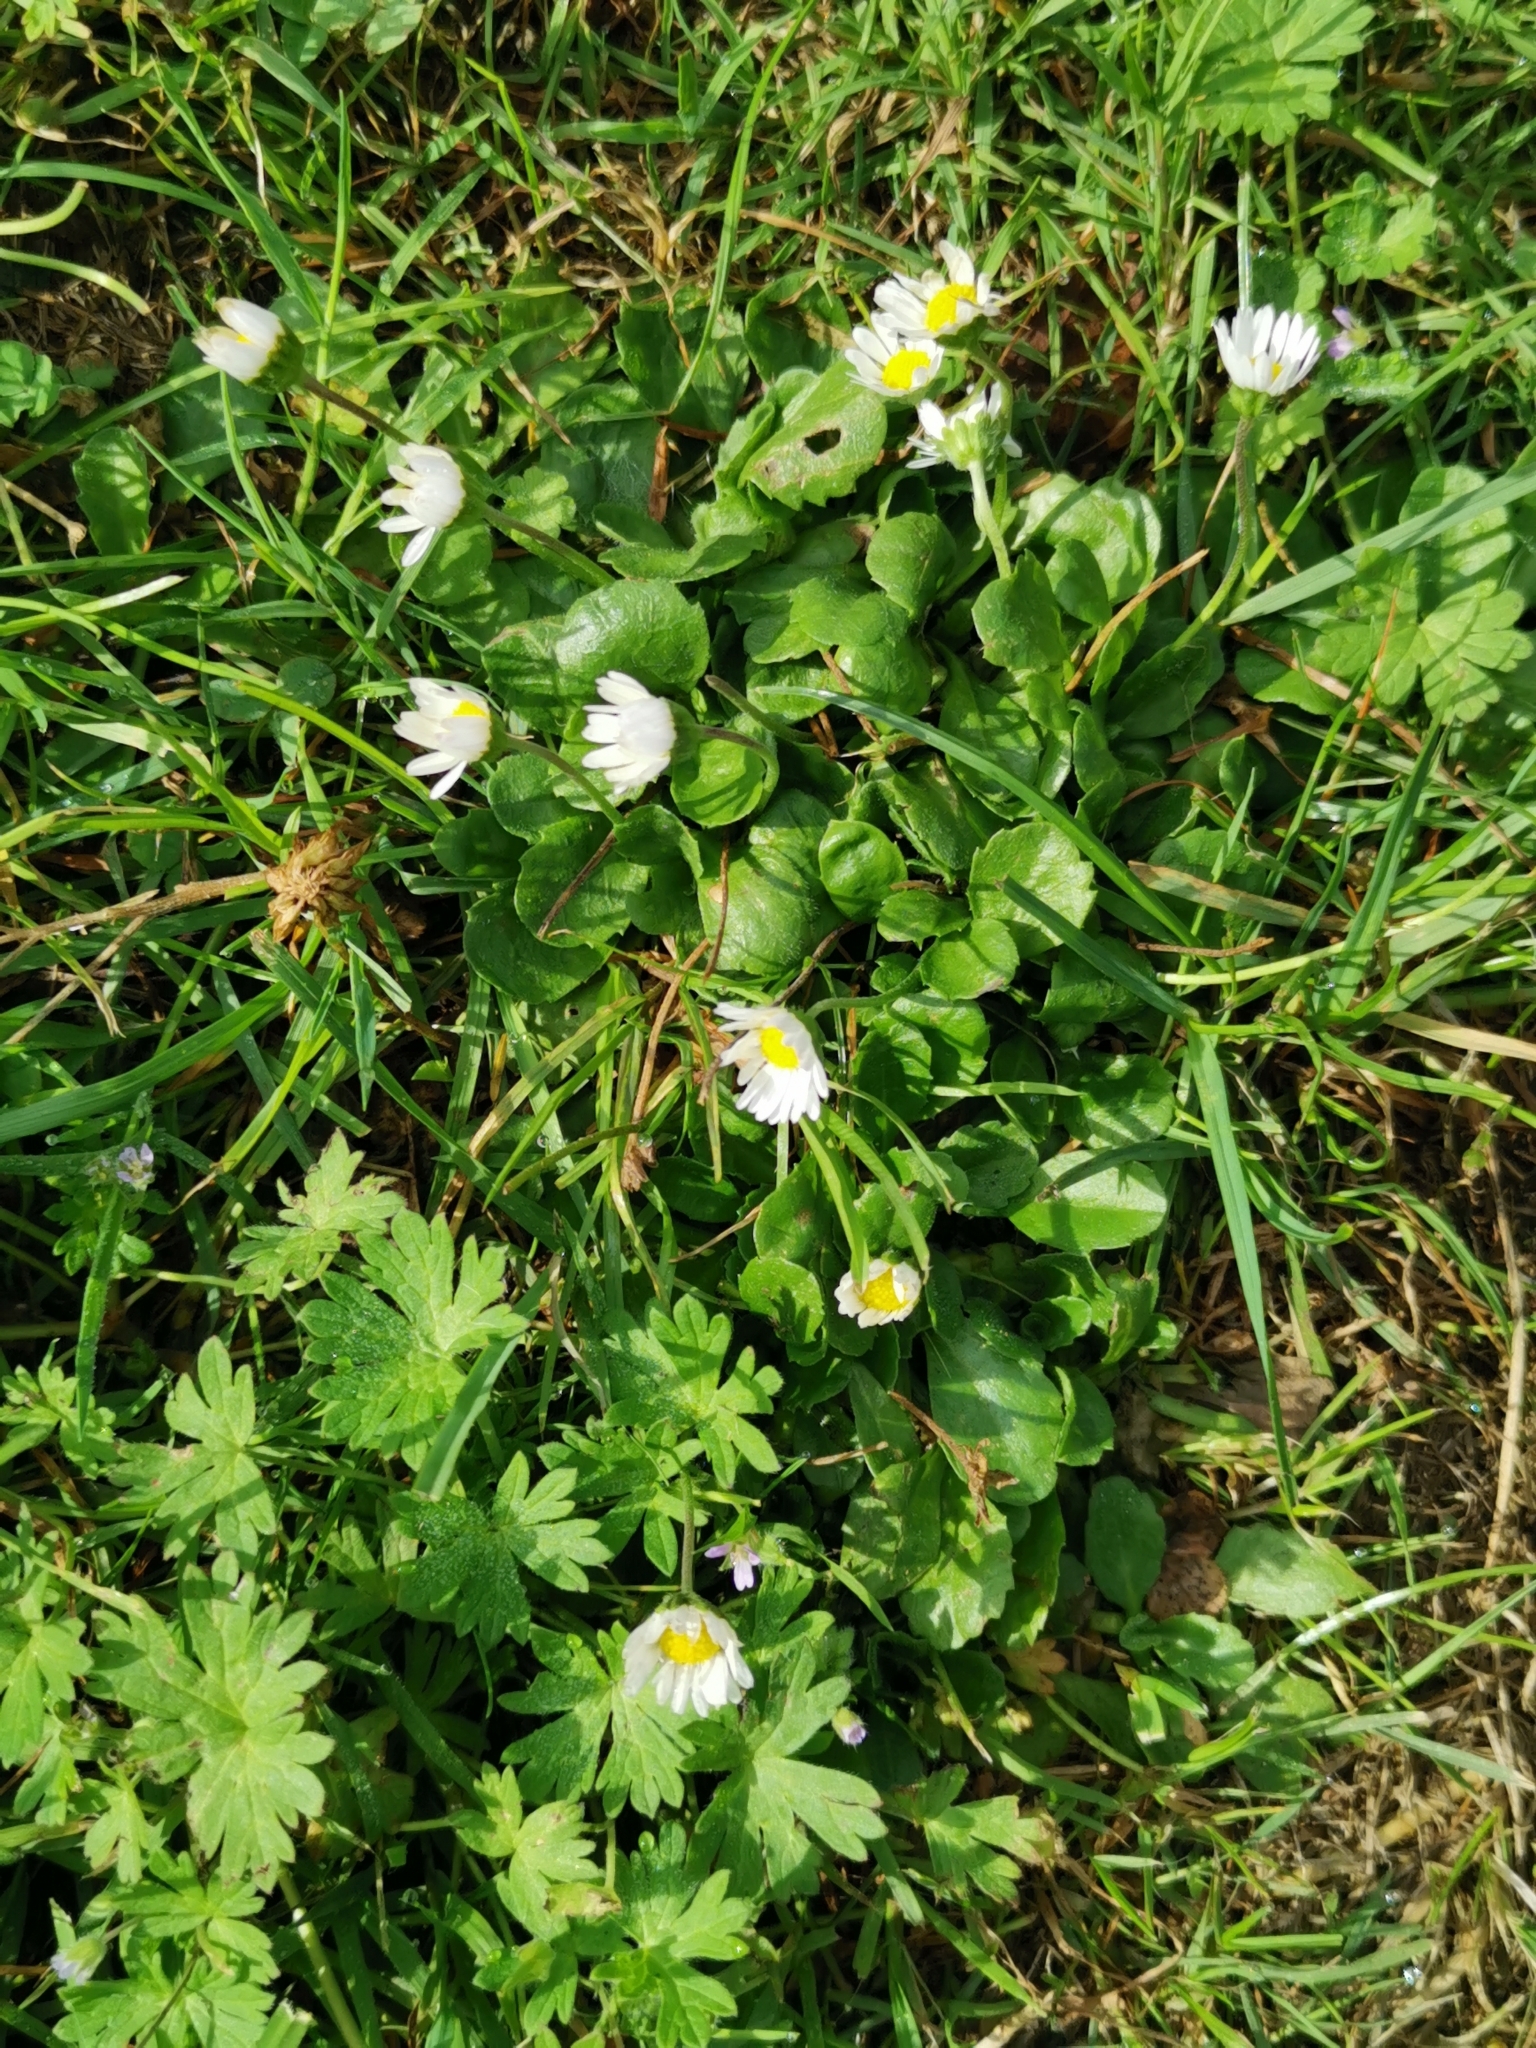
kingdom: Plantae
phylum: Tracheophyta
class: Magnoliopsida
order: Asterales
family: Asteraceae
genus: Bellis
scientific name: Bellis perennis
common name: Lawndaisy
